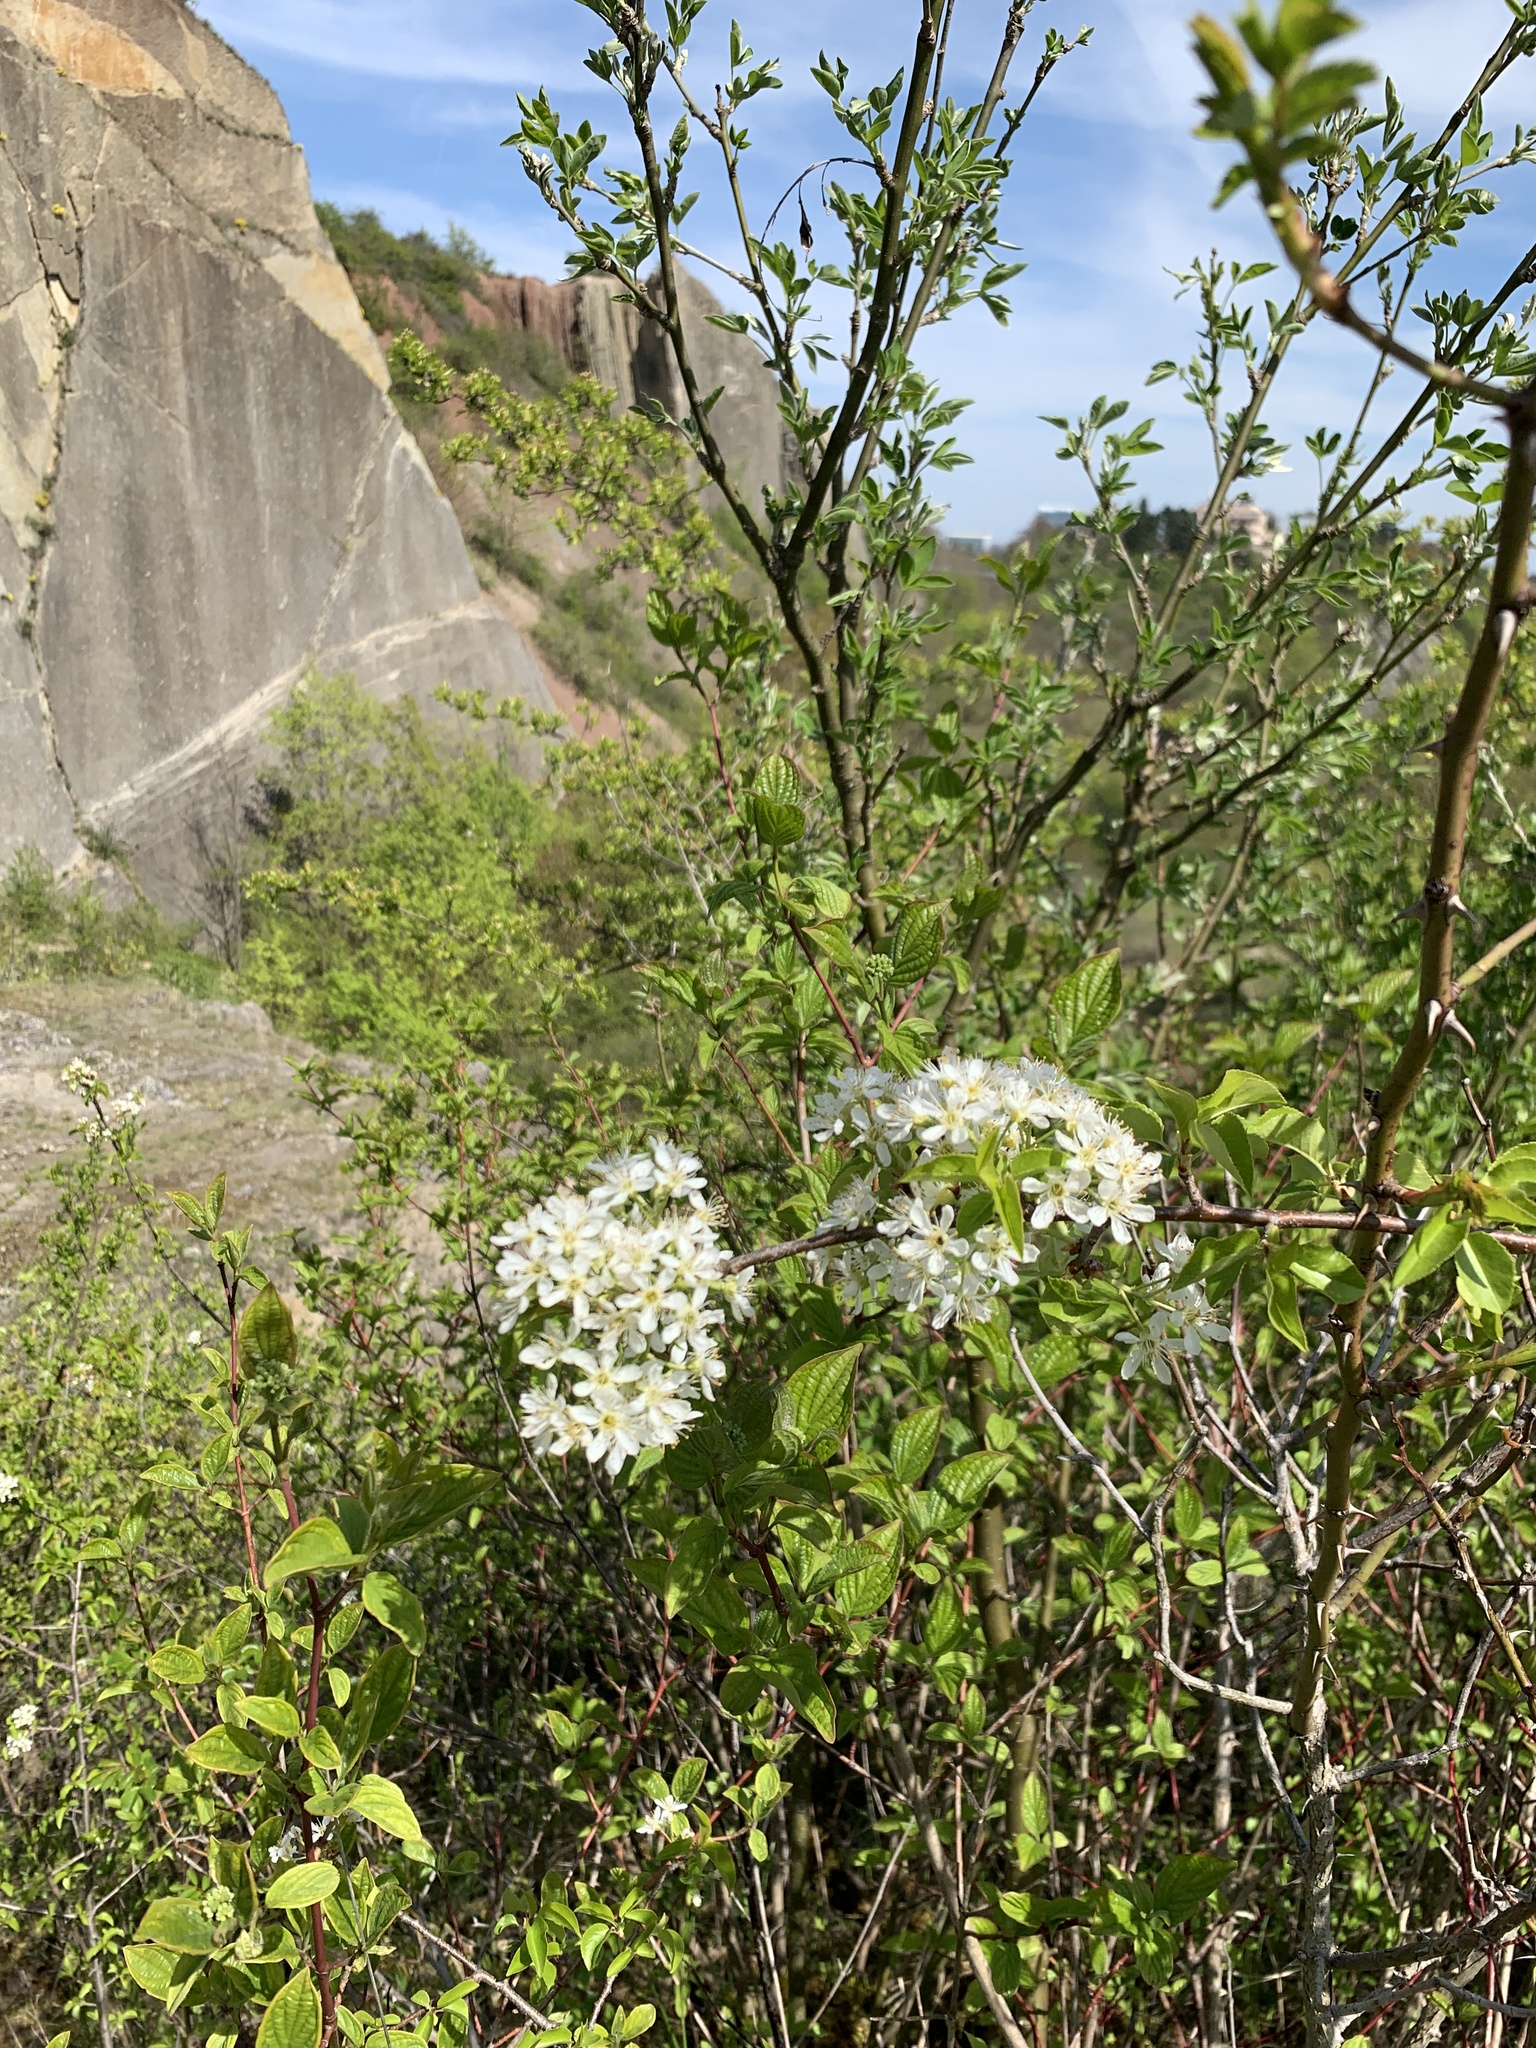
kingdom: Plantae
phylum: Tracheophyta
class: Magnoliopsida
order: Rosales
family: Rosaceae
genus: Prunus
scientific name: Prunus mahaleb
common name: Mahaleb cherry
